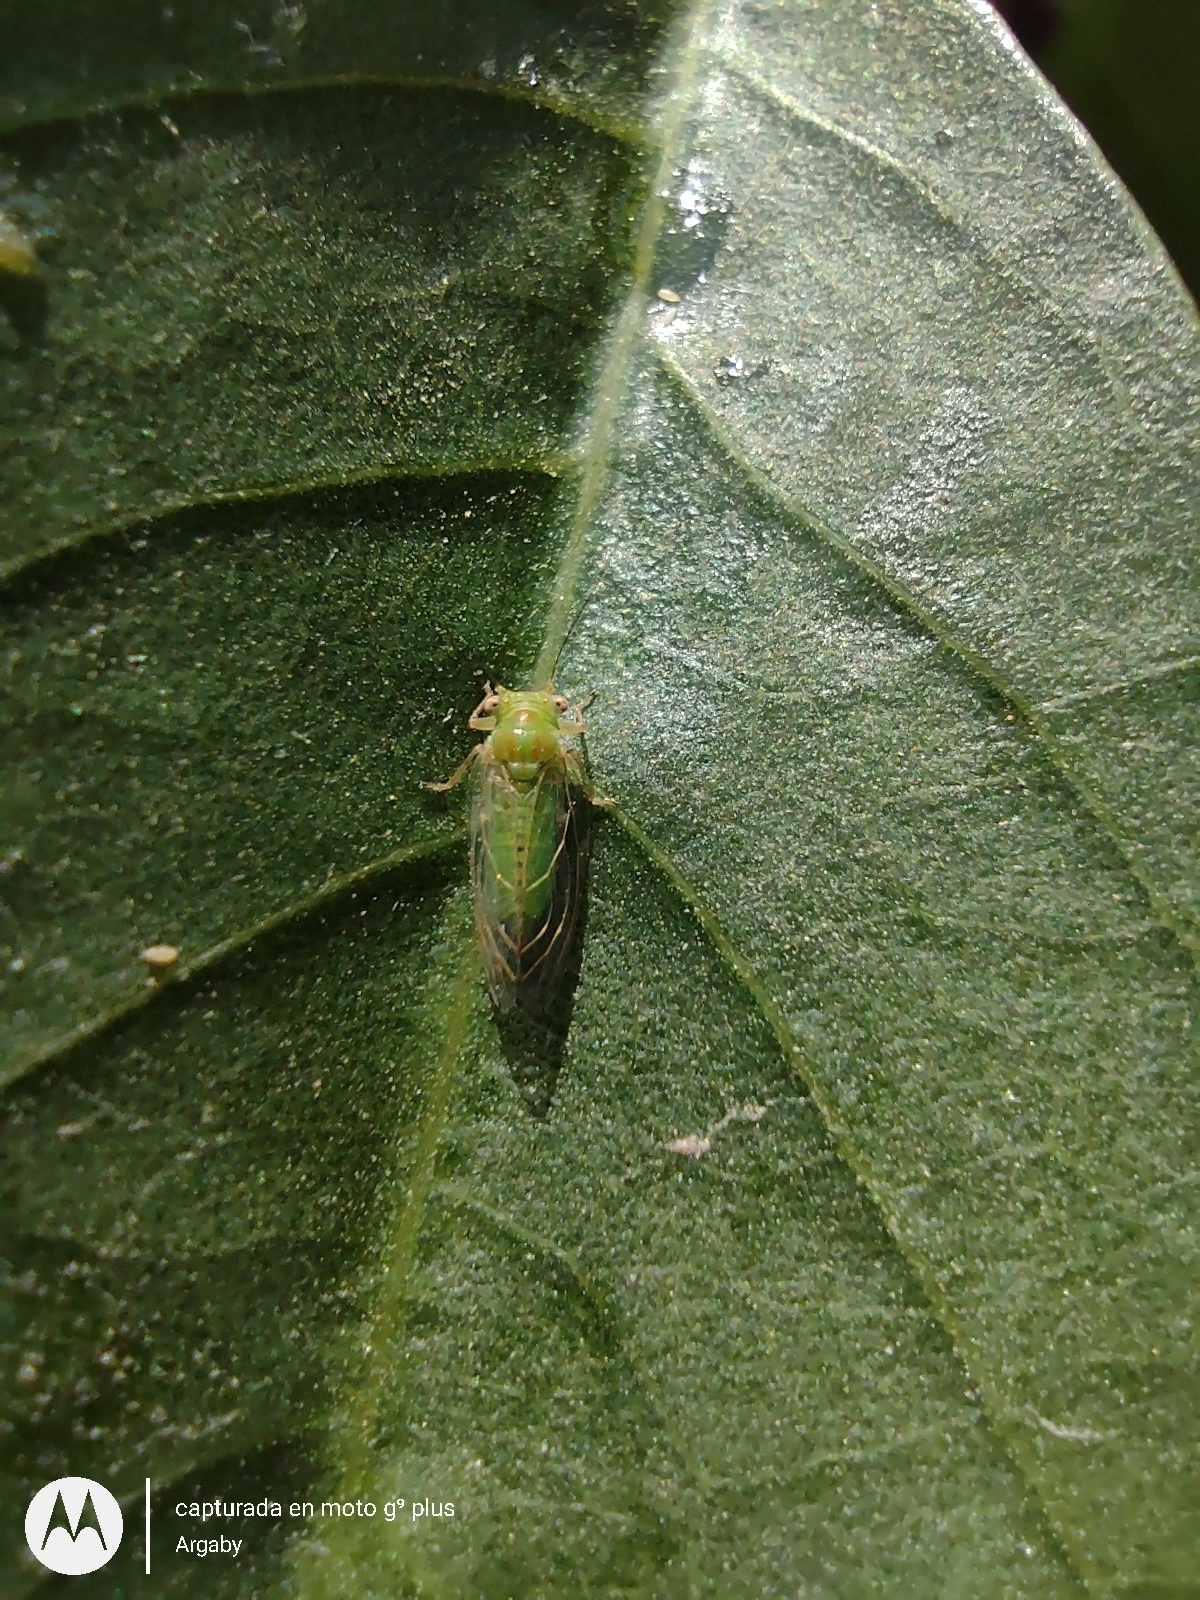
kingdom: Animalia
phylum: Arthropoda
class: Insecta
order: Hemiptera
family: Psyllidae
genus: Platycorypha
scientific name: Platycorypha erythrinae
